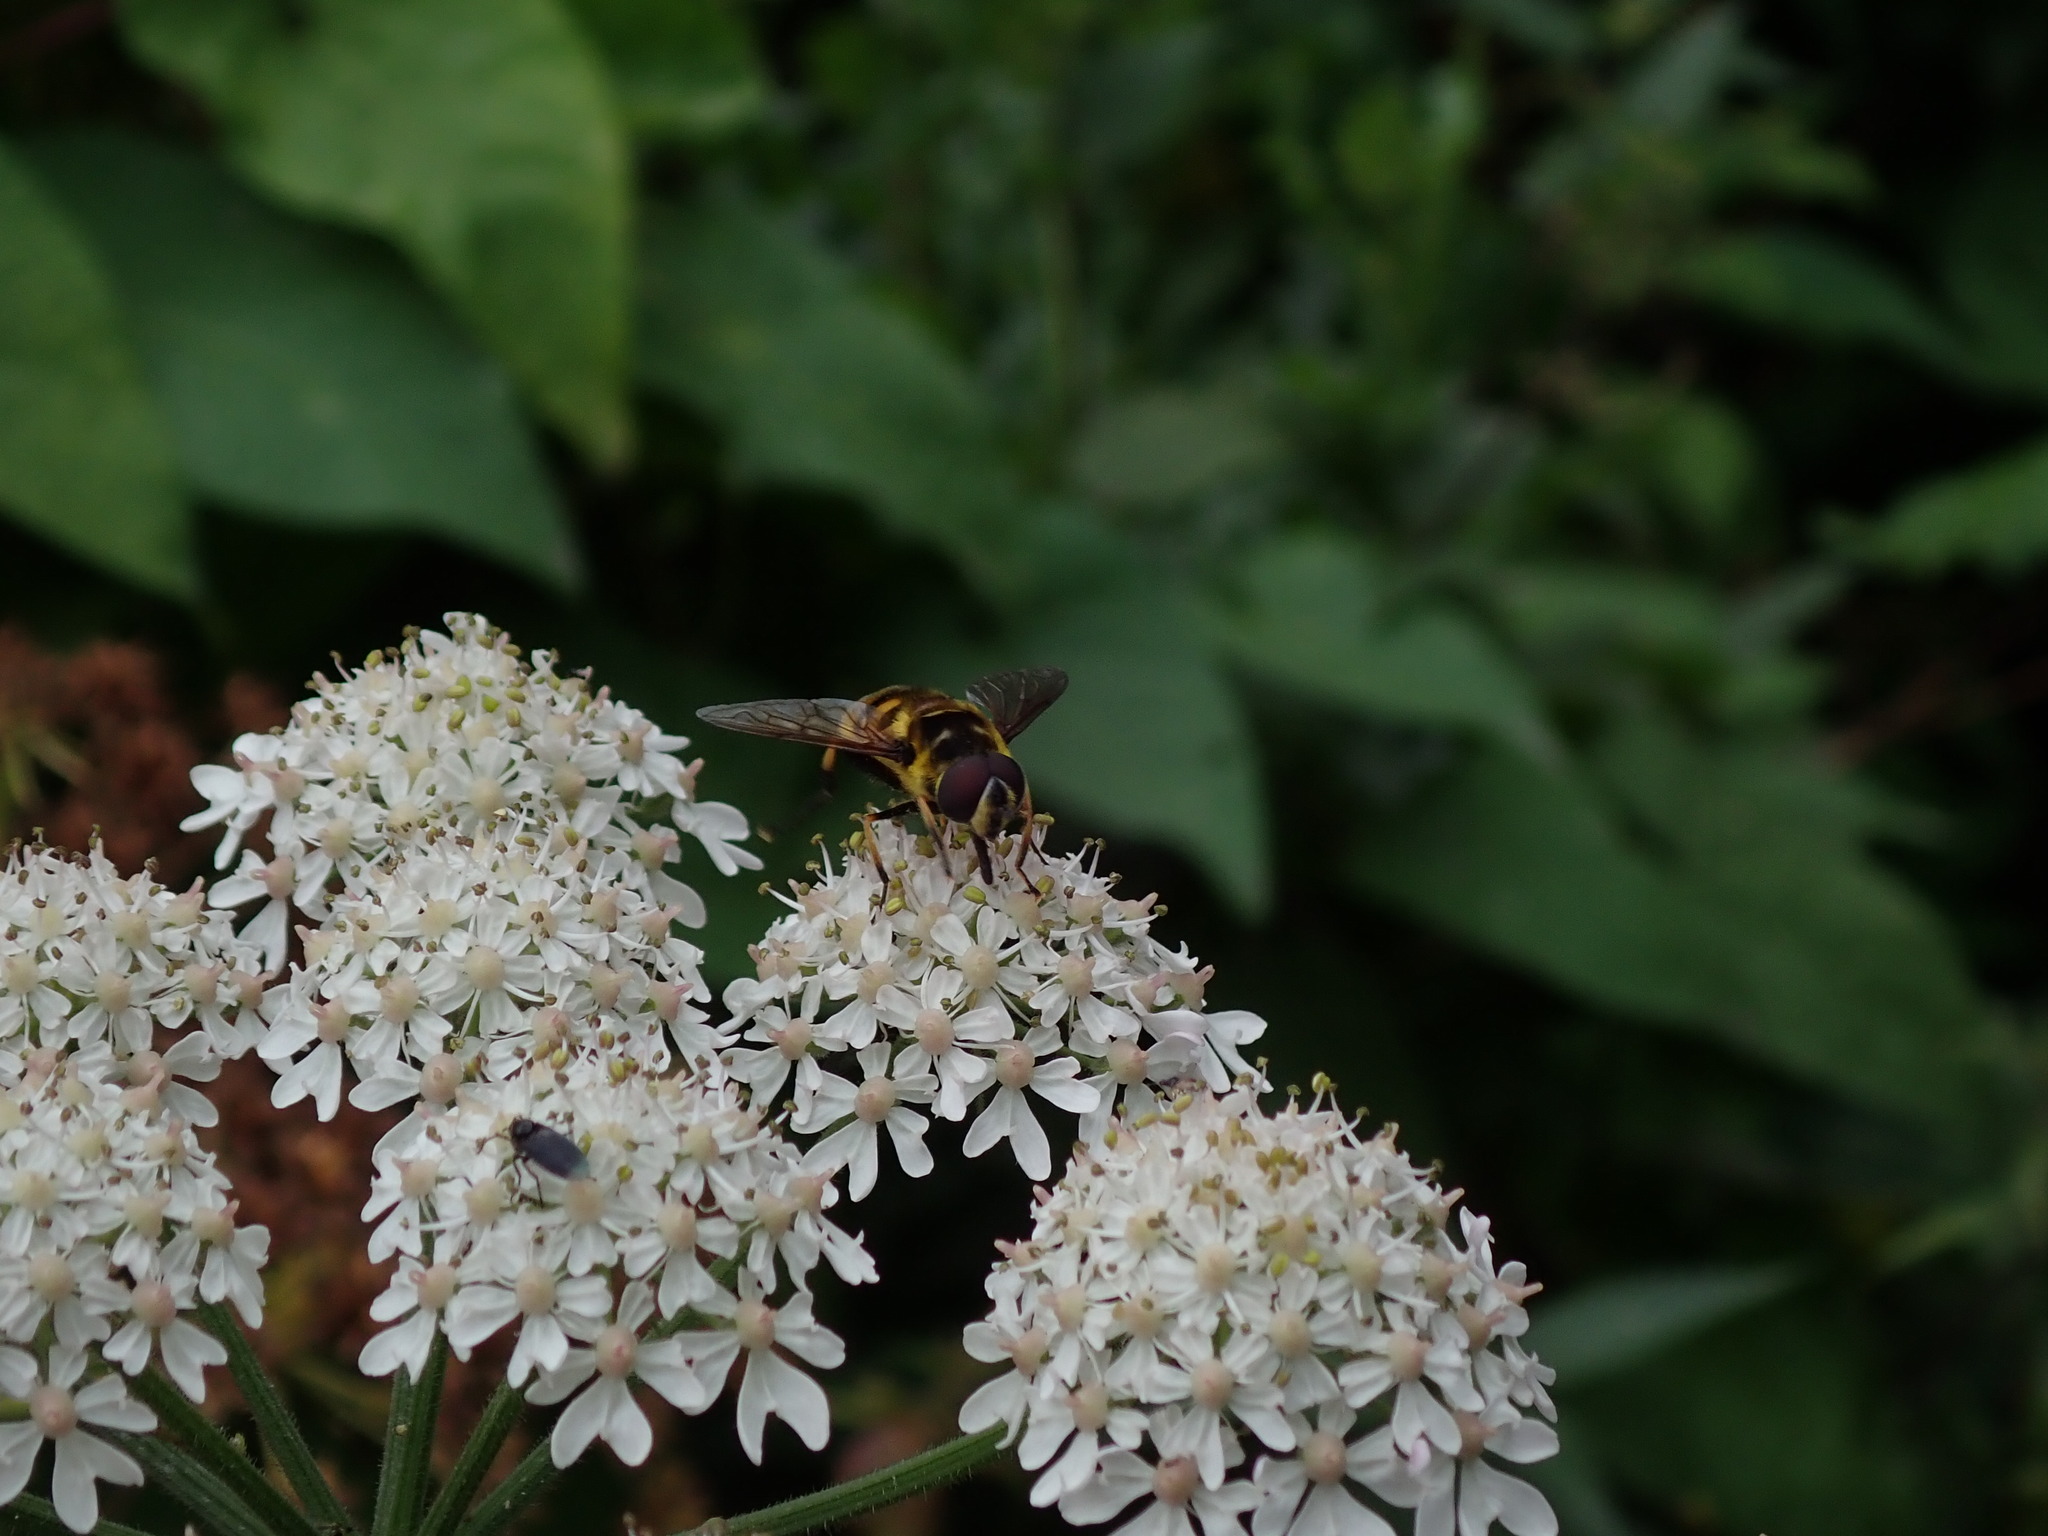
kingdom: Animalia
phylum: Arthropoda
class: Insecta
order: Diptera
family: Syrphidae
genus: Myathropa
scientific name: Myathropa florea
